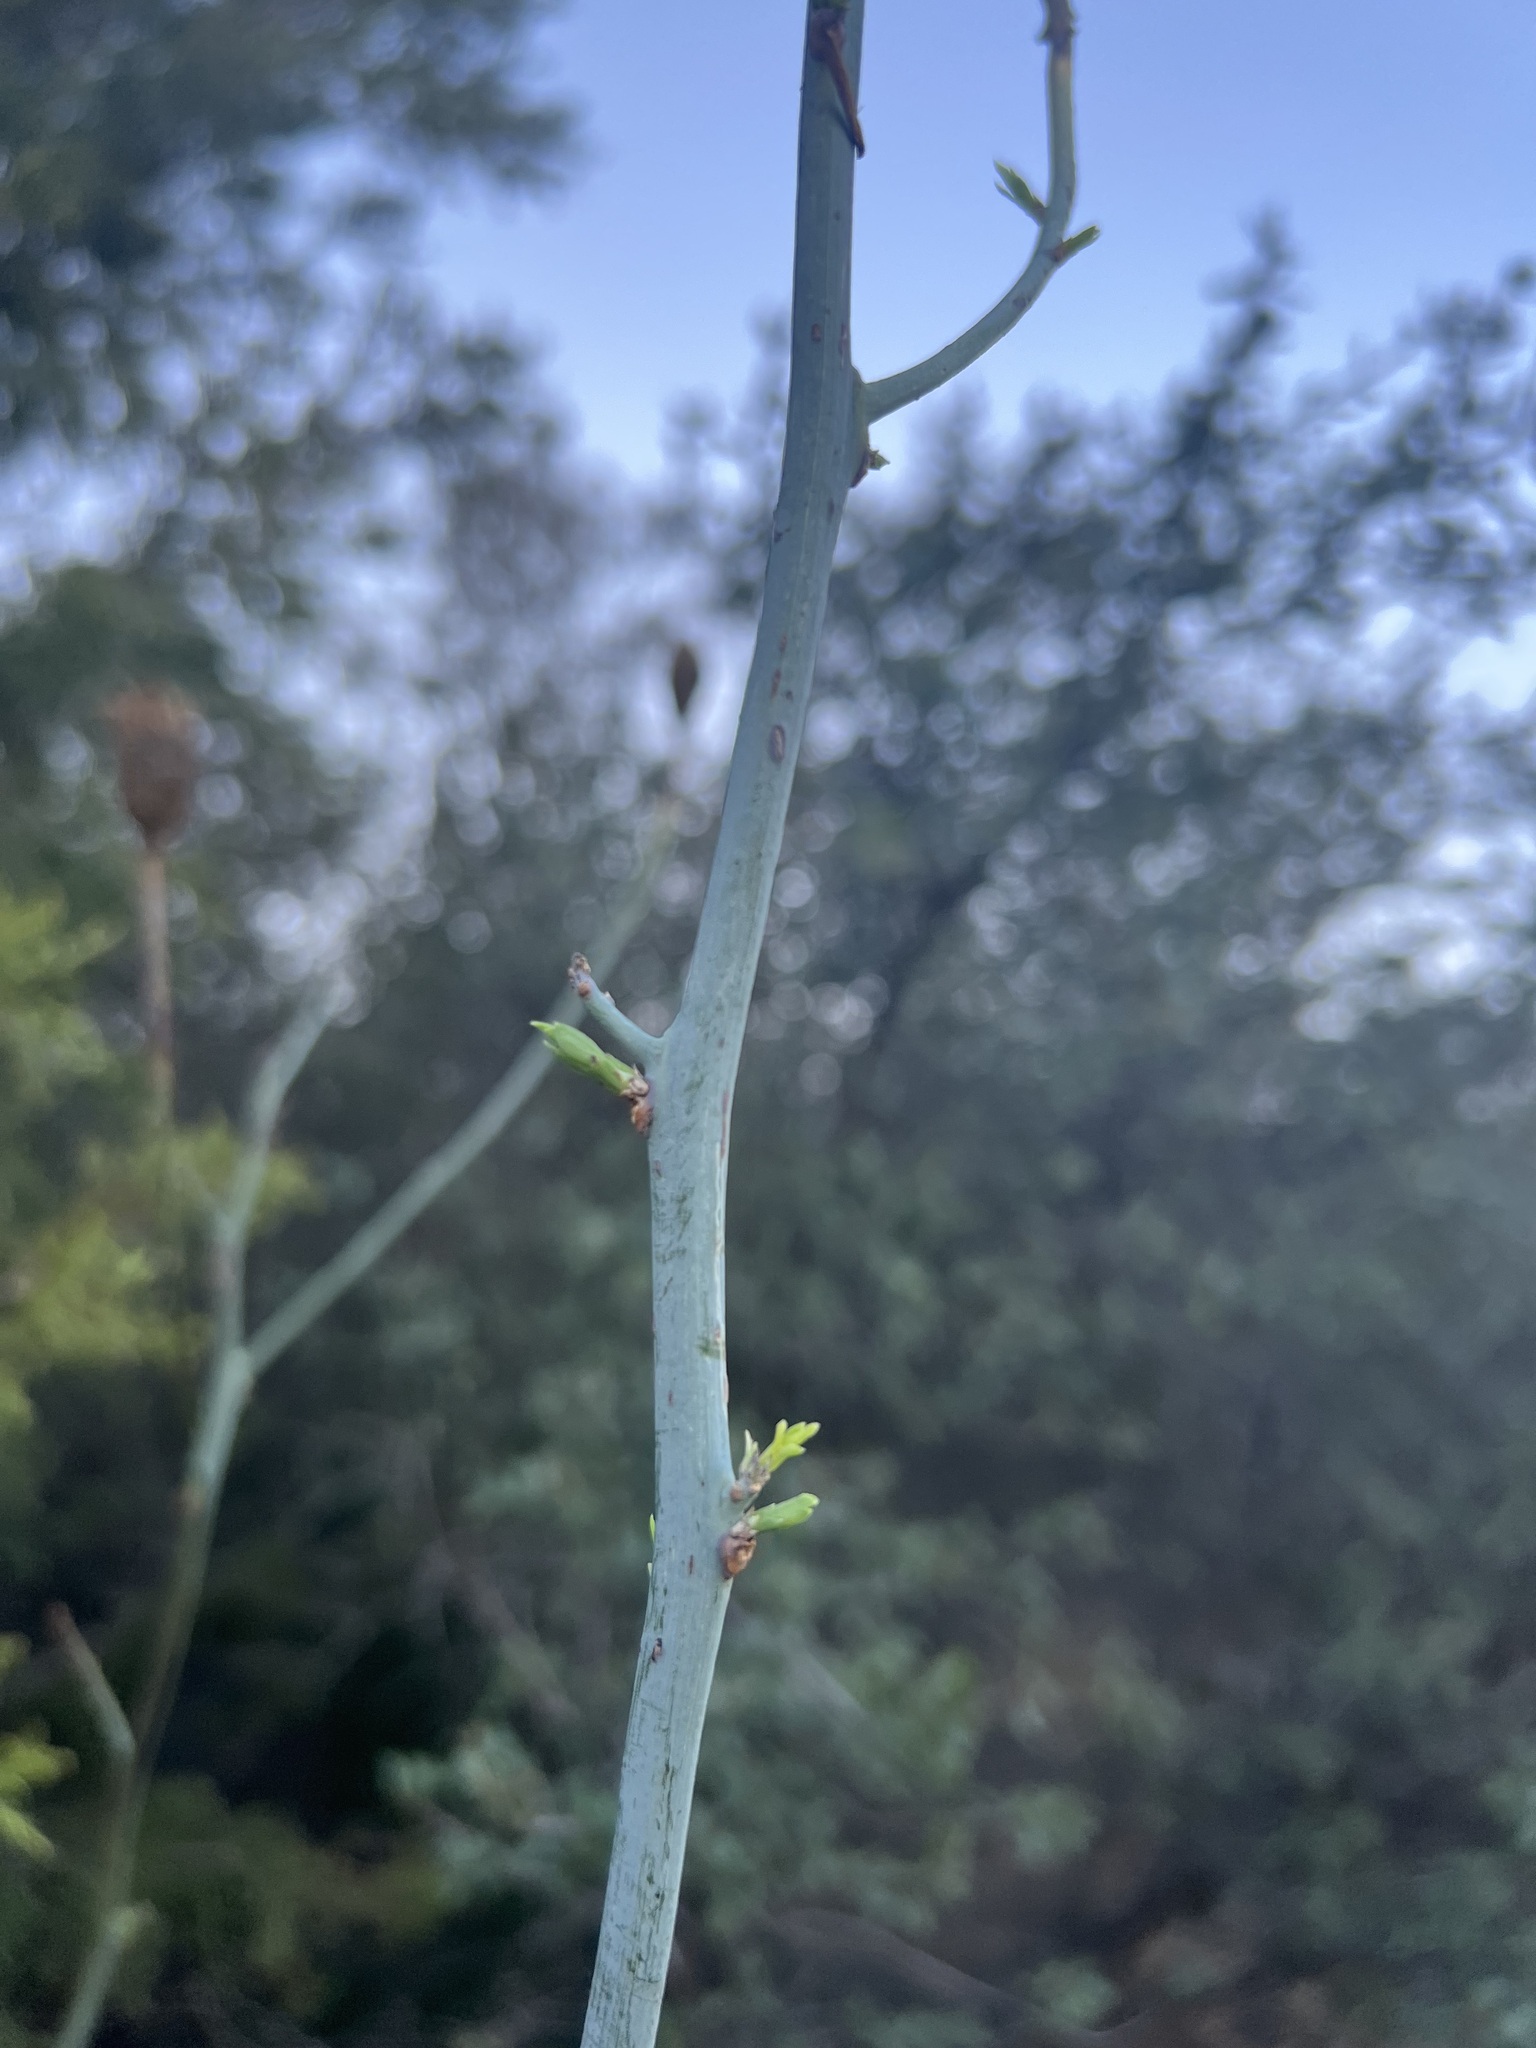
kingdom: Plantae
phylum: Tracheophyta
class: Magnoliopsida
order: Ranunculales
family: Papaveraceae
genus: Romneya
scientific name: Romneya coulteri
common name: California tree-poppy
